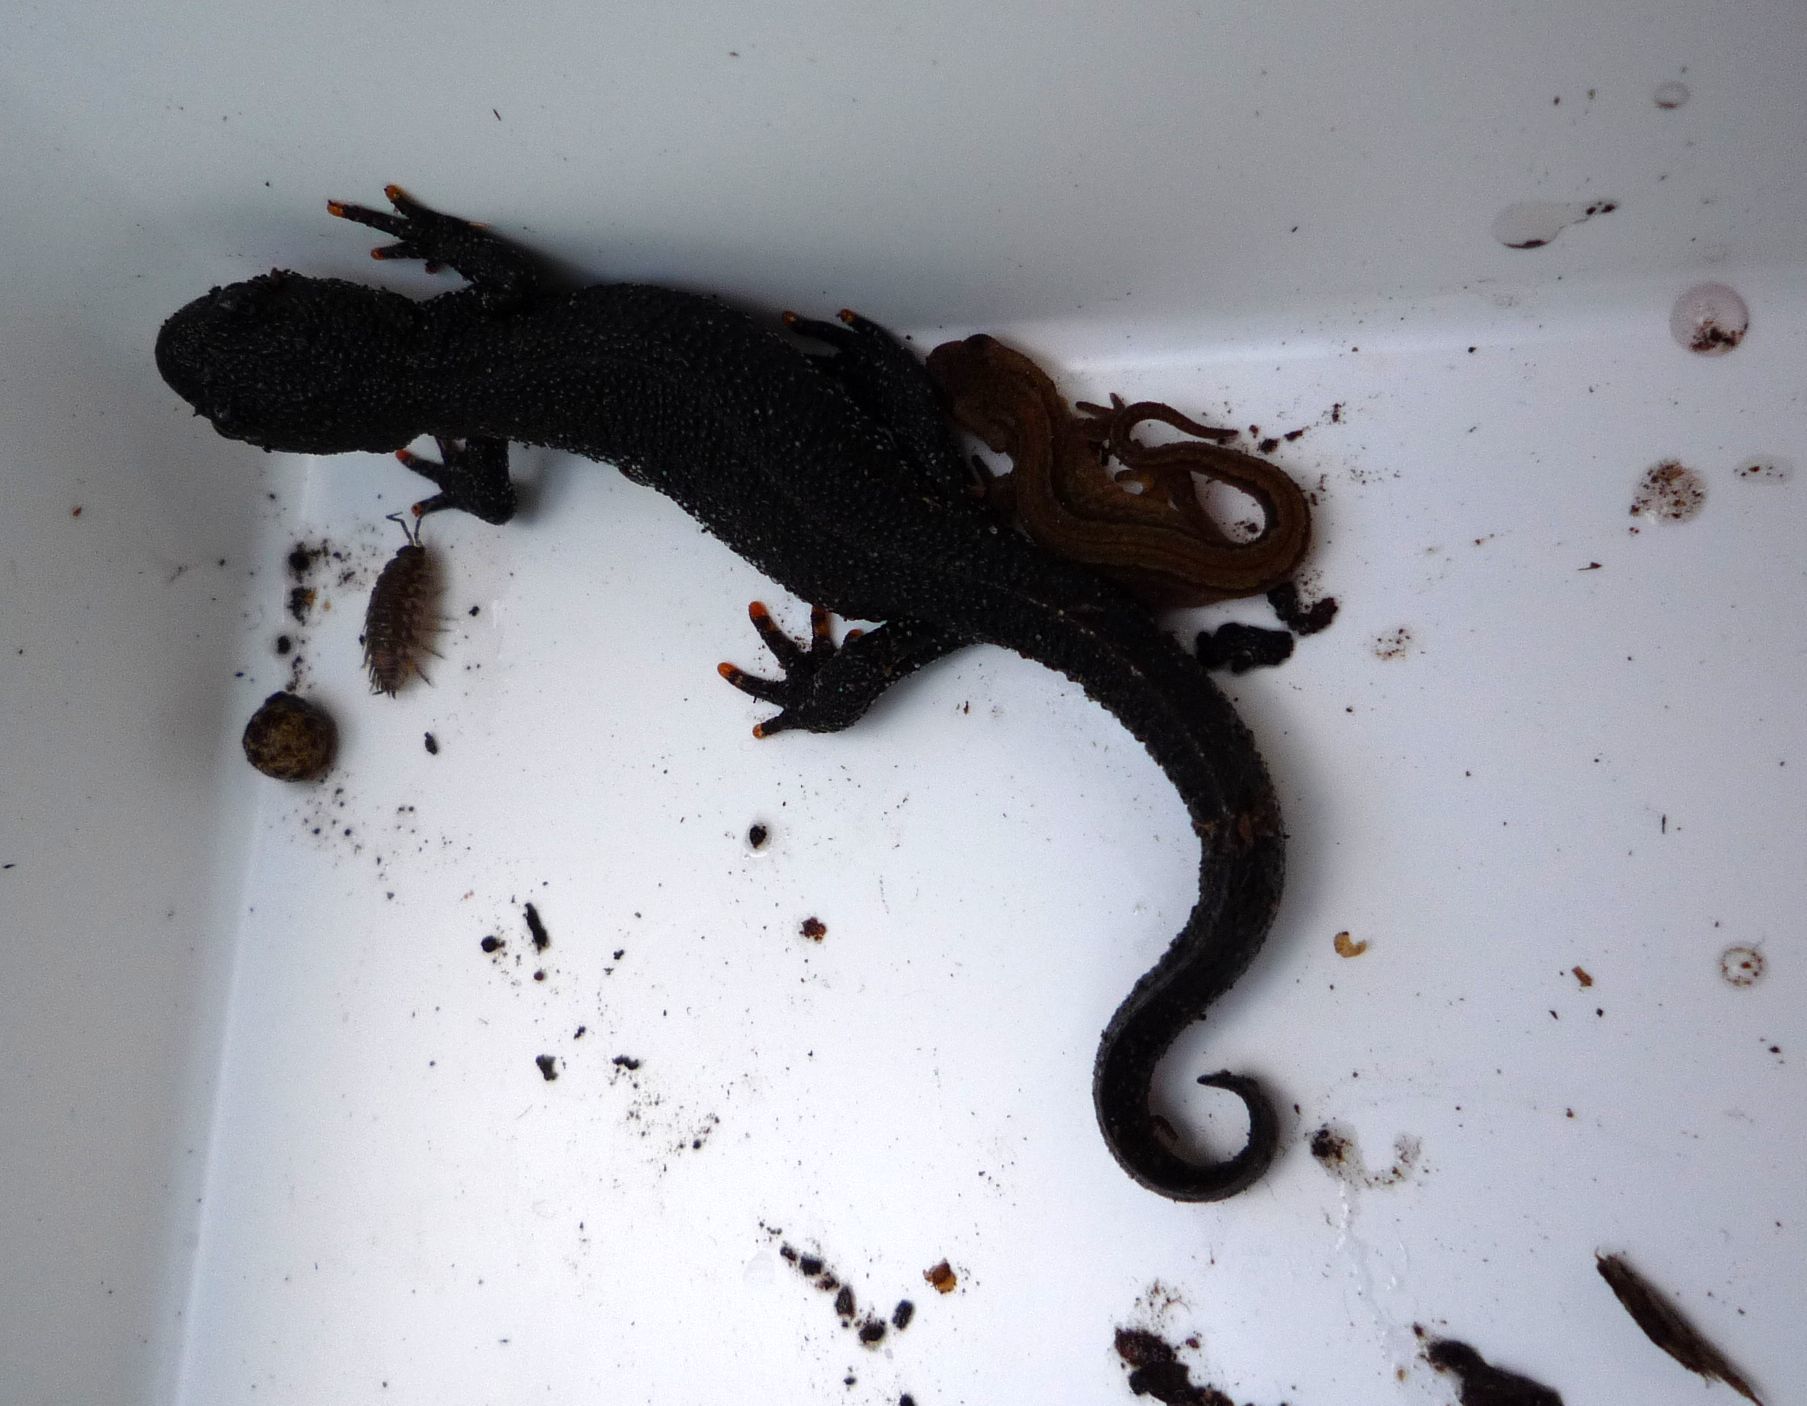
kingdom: Animalia
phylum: Chordata
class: Amphibia
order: Caudata
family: Salamandridae
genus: Lissotriton
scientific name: Lissotriton vulgaris
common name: Smooth newt
